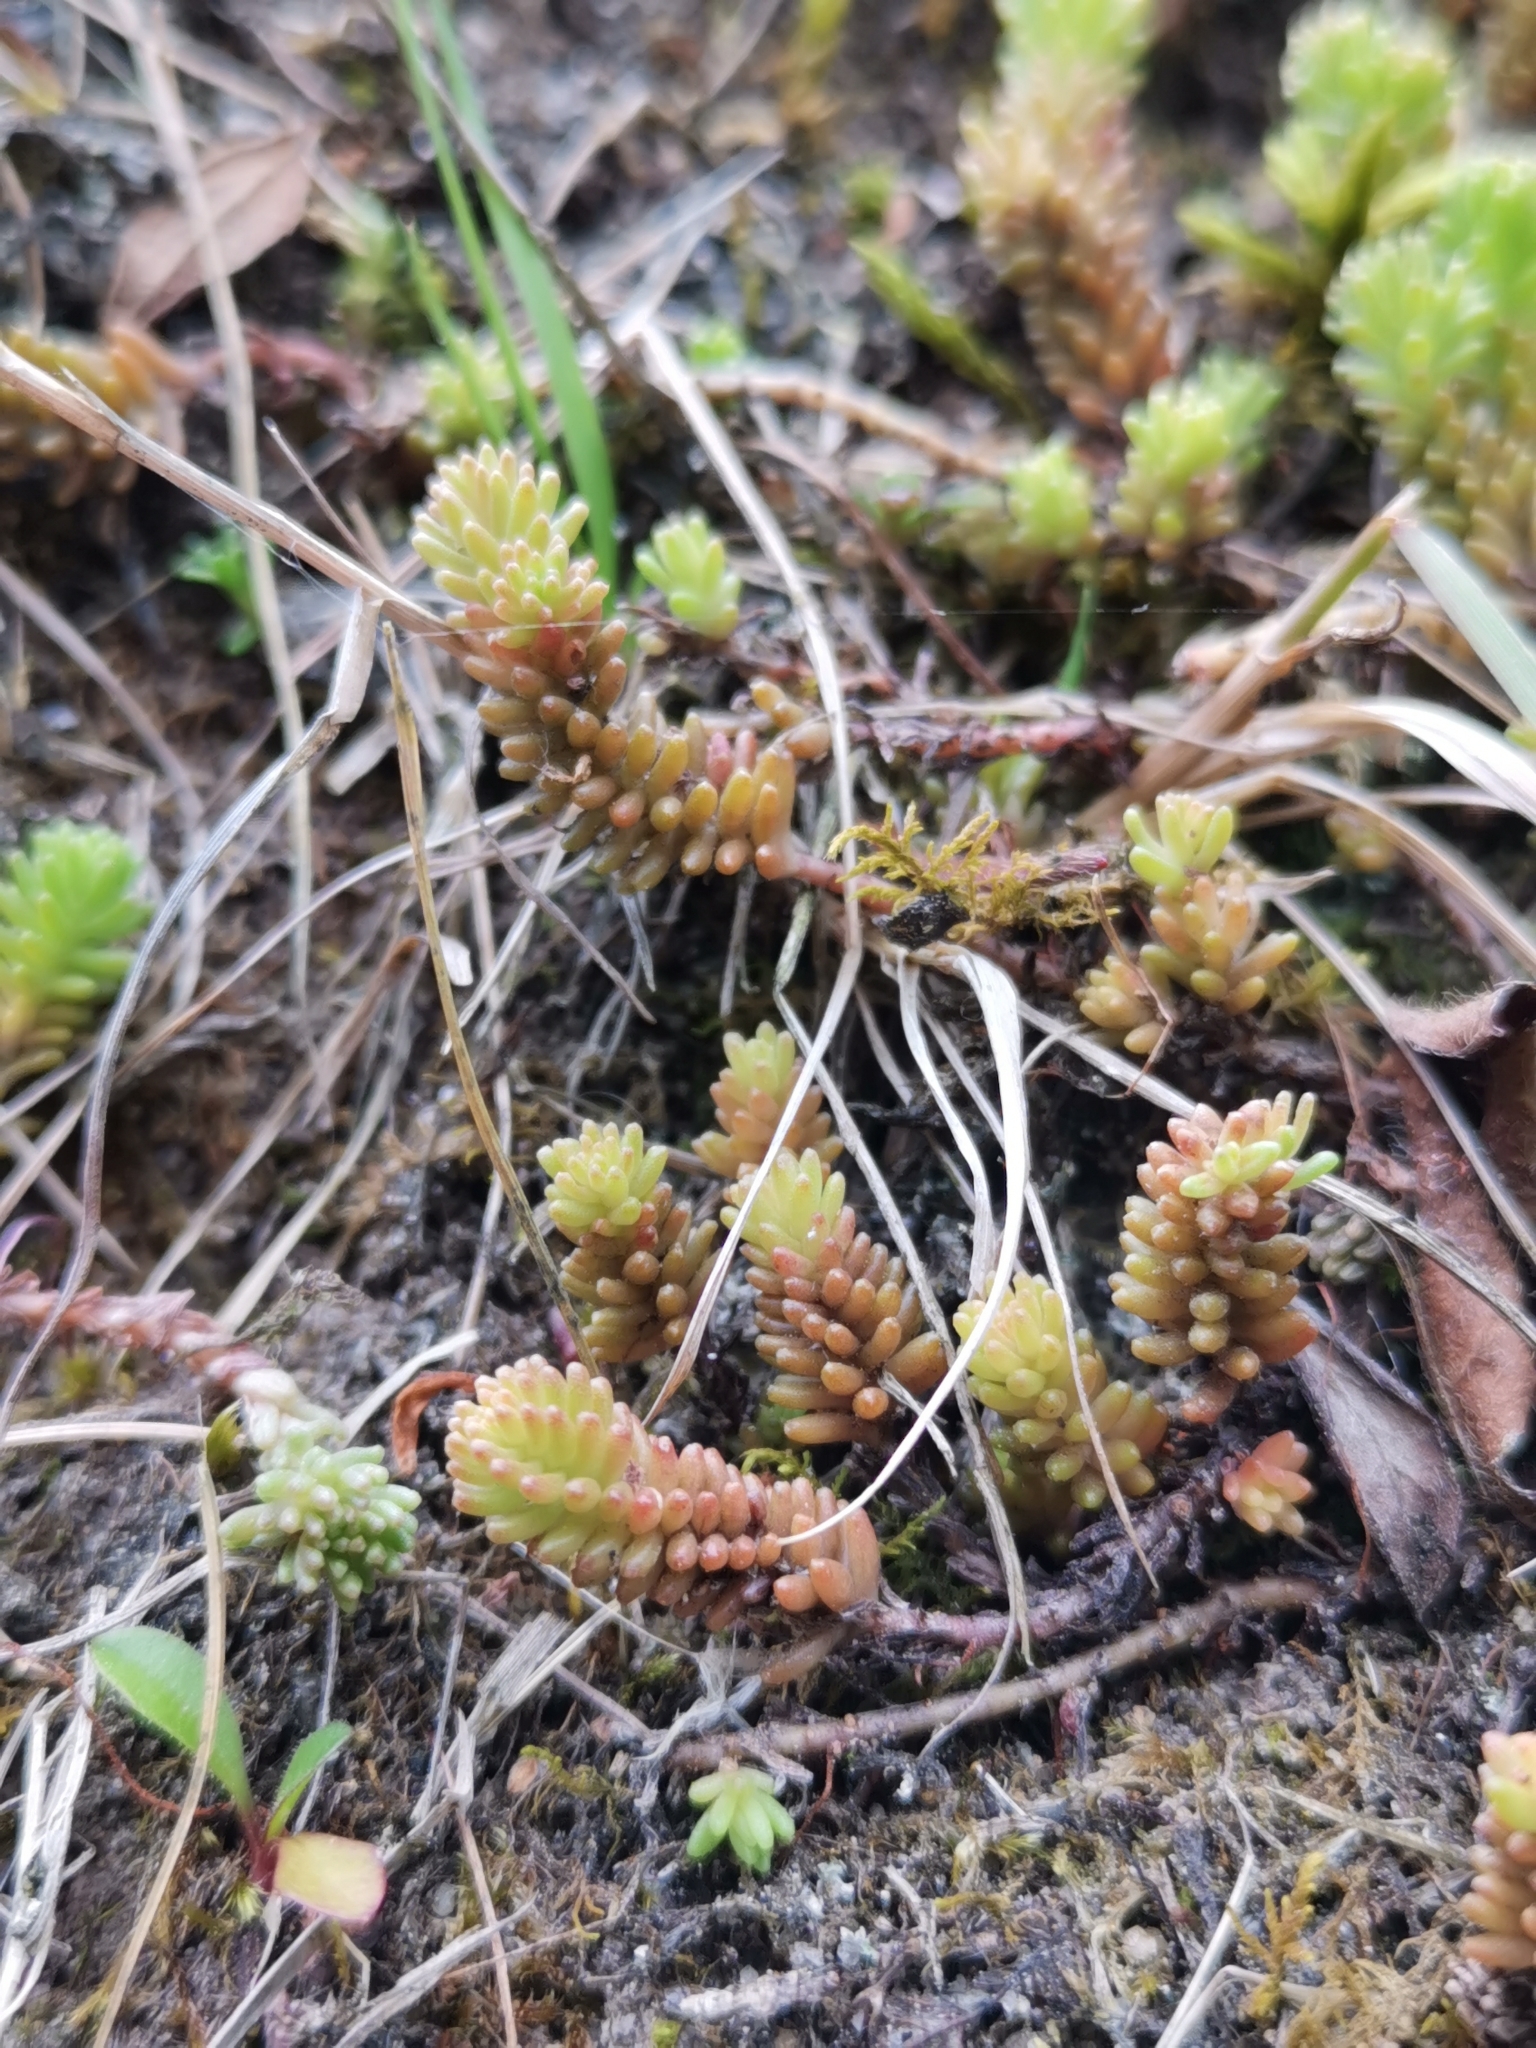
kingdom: Plantae
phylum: Tracheophyta
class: Magnoliopsida
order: Saxifragales
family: Crassulaceae
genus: Sedum
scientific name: Sedum sexangulare
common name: Tasteless stonecrop
